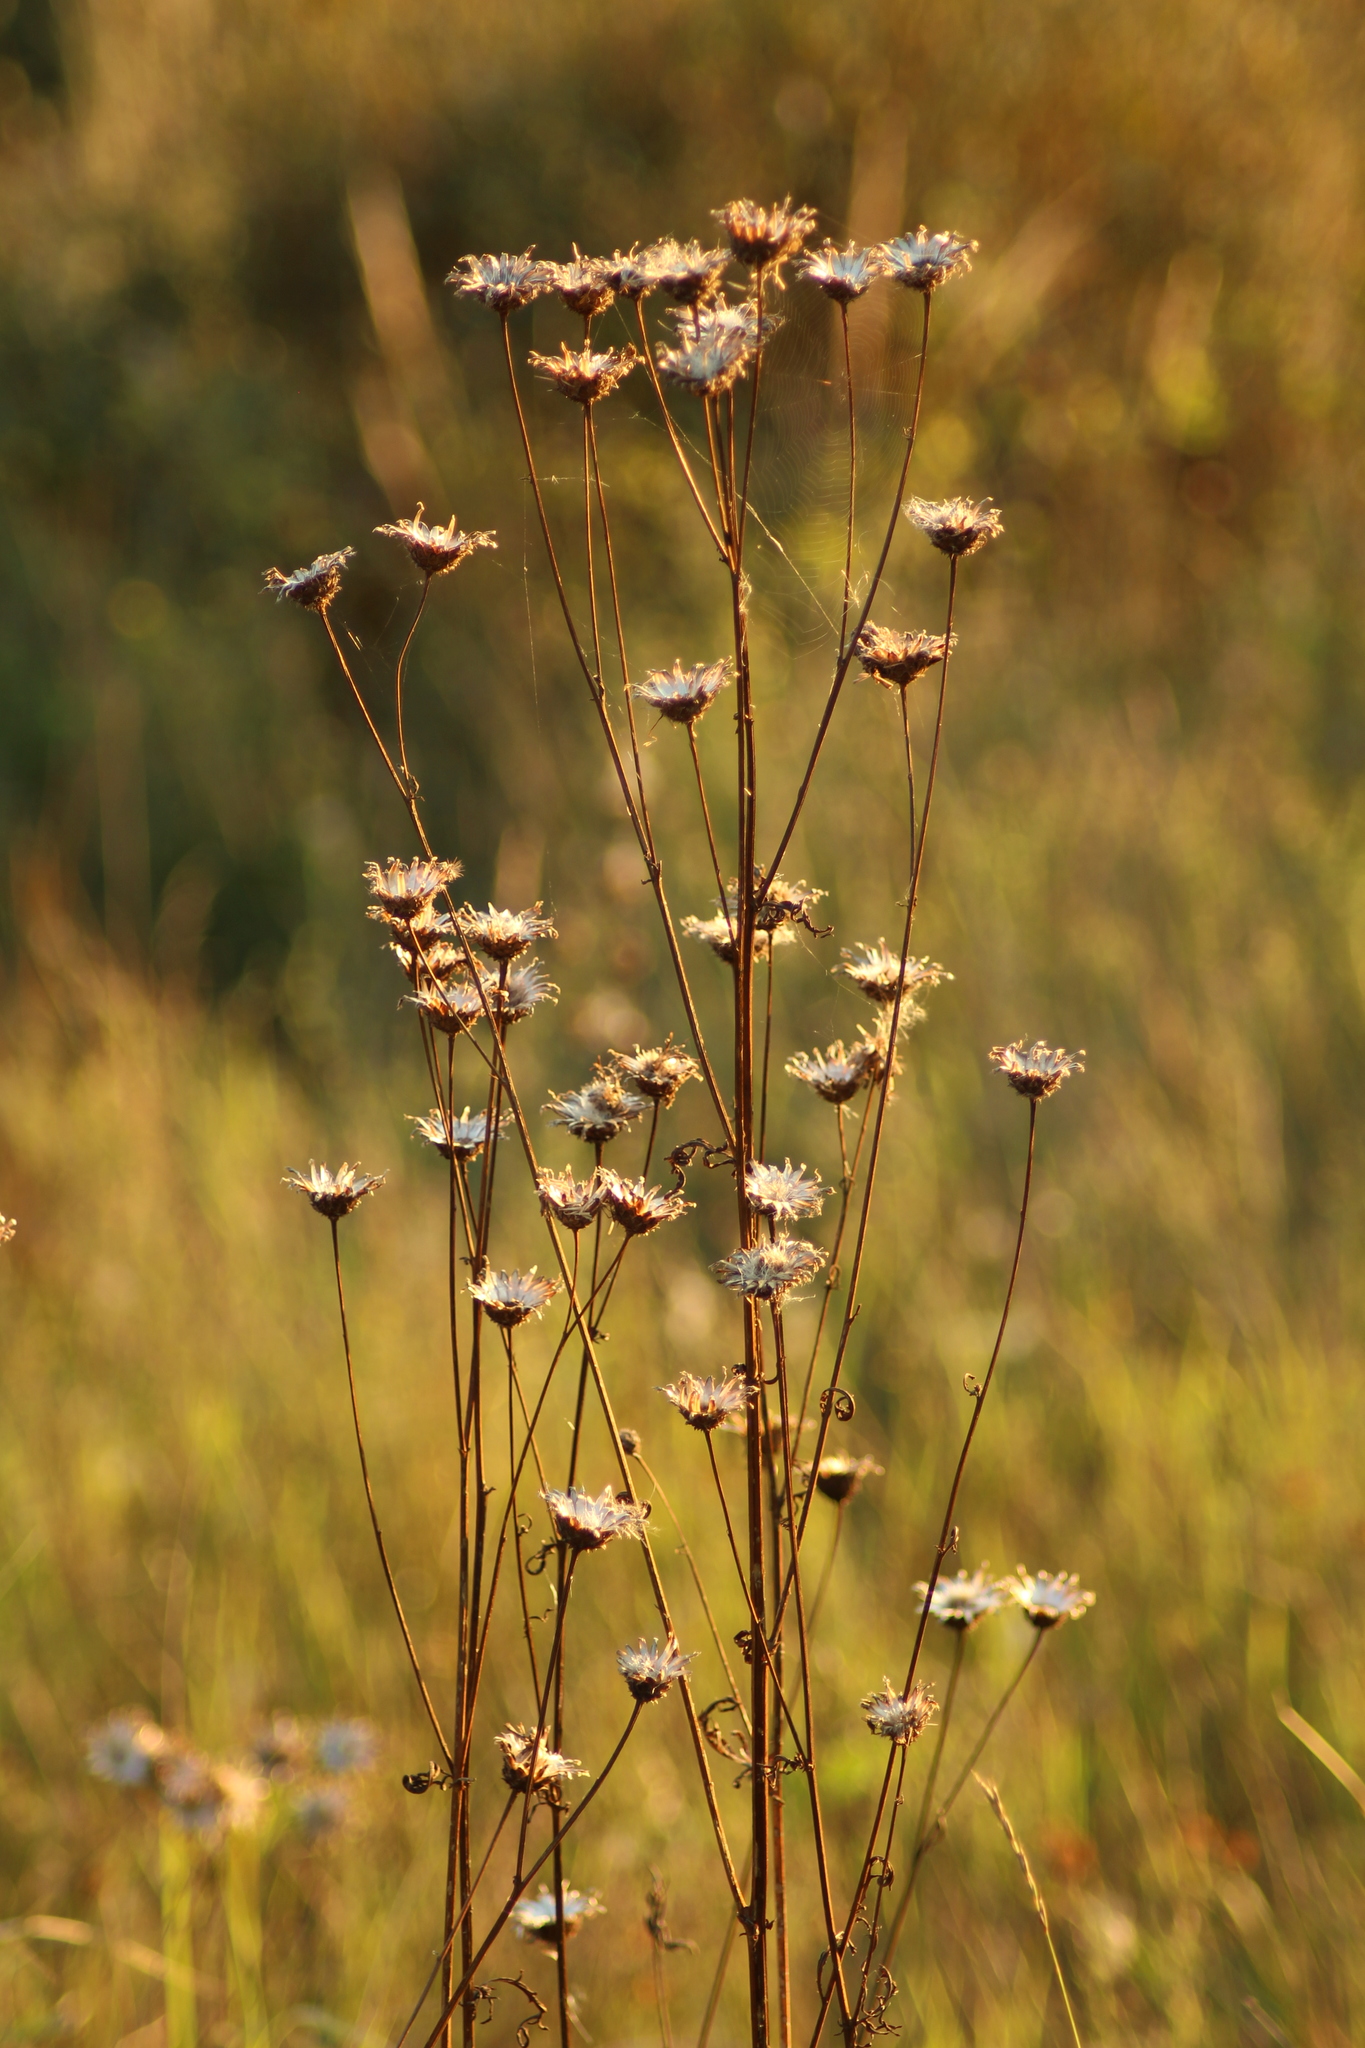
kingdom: Plantae
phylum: Tracheophyta
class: Magnoliopsida
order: Asterales
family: Asteraceae
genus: Centaurea
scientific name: Centaurea scabiosa
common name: Greater knapweed
